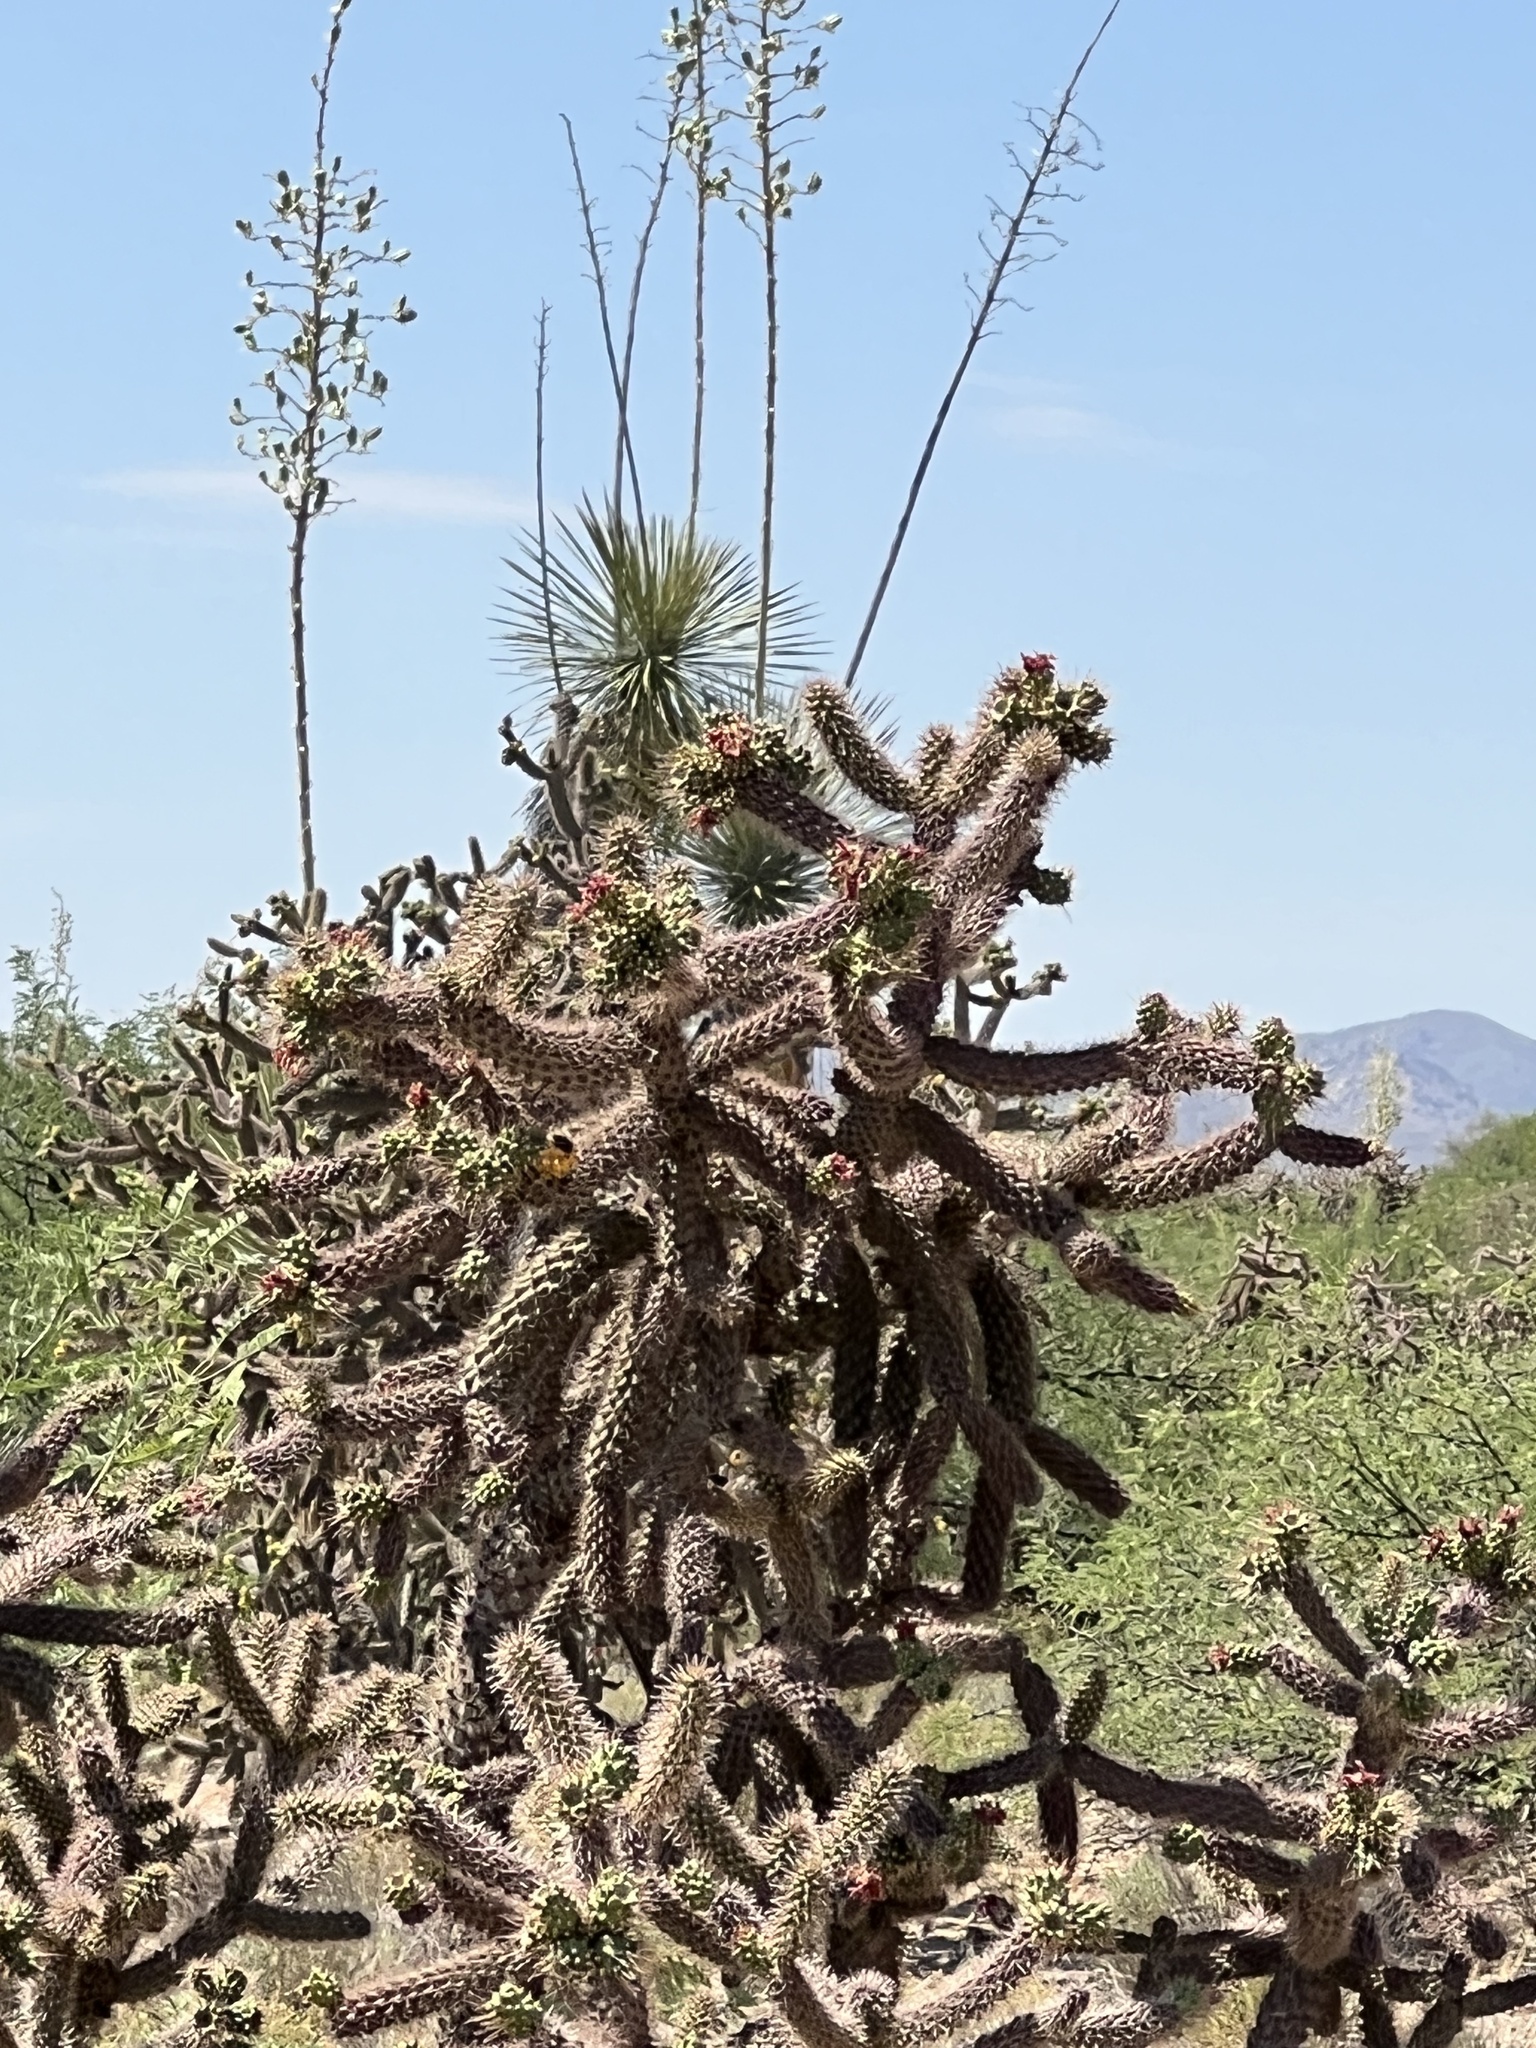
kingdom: Plantae
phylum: Tracheophyta
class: Magnoliopsida
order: Caryophyllales
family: Cactaceae
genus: Cylindropuntia
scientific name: Cylindropuntia imbricata
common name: Candelabrum cactus
